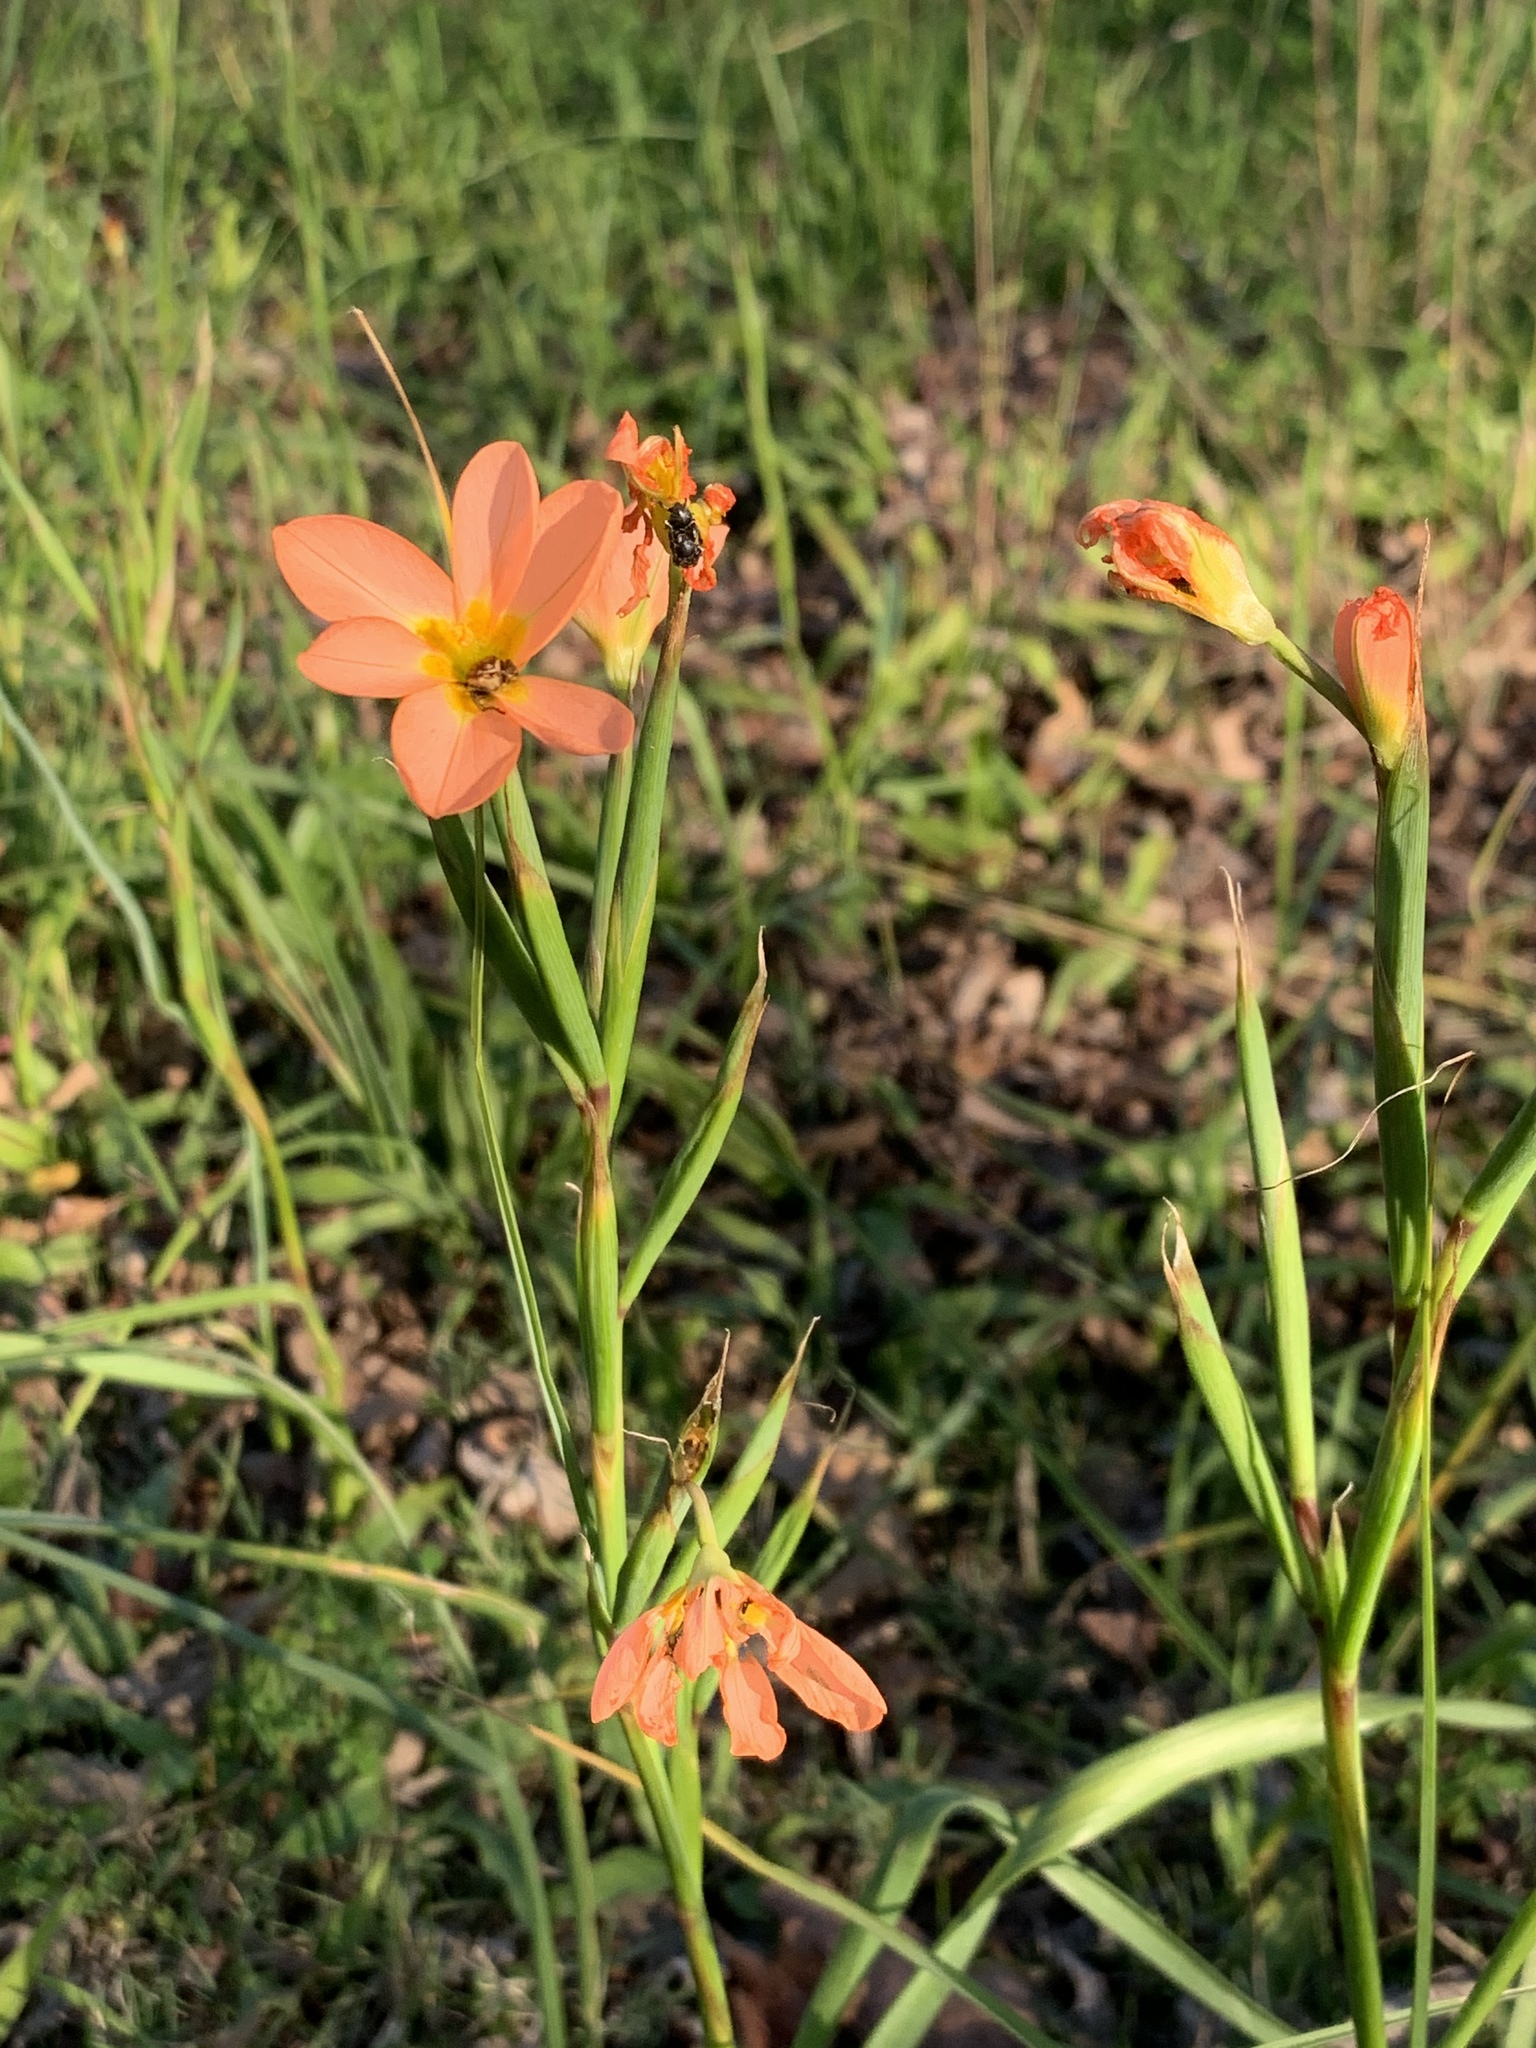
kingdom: Plantae
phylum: Tracheophyta
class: Liliopsida
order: Asparagales
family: Iridaceae
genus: Moraea
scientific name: Moraea miniata
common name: Two-leaf cape-tulip
